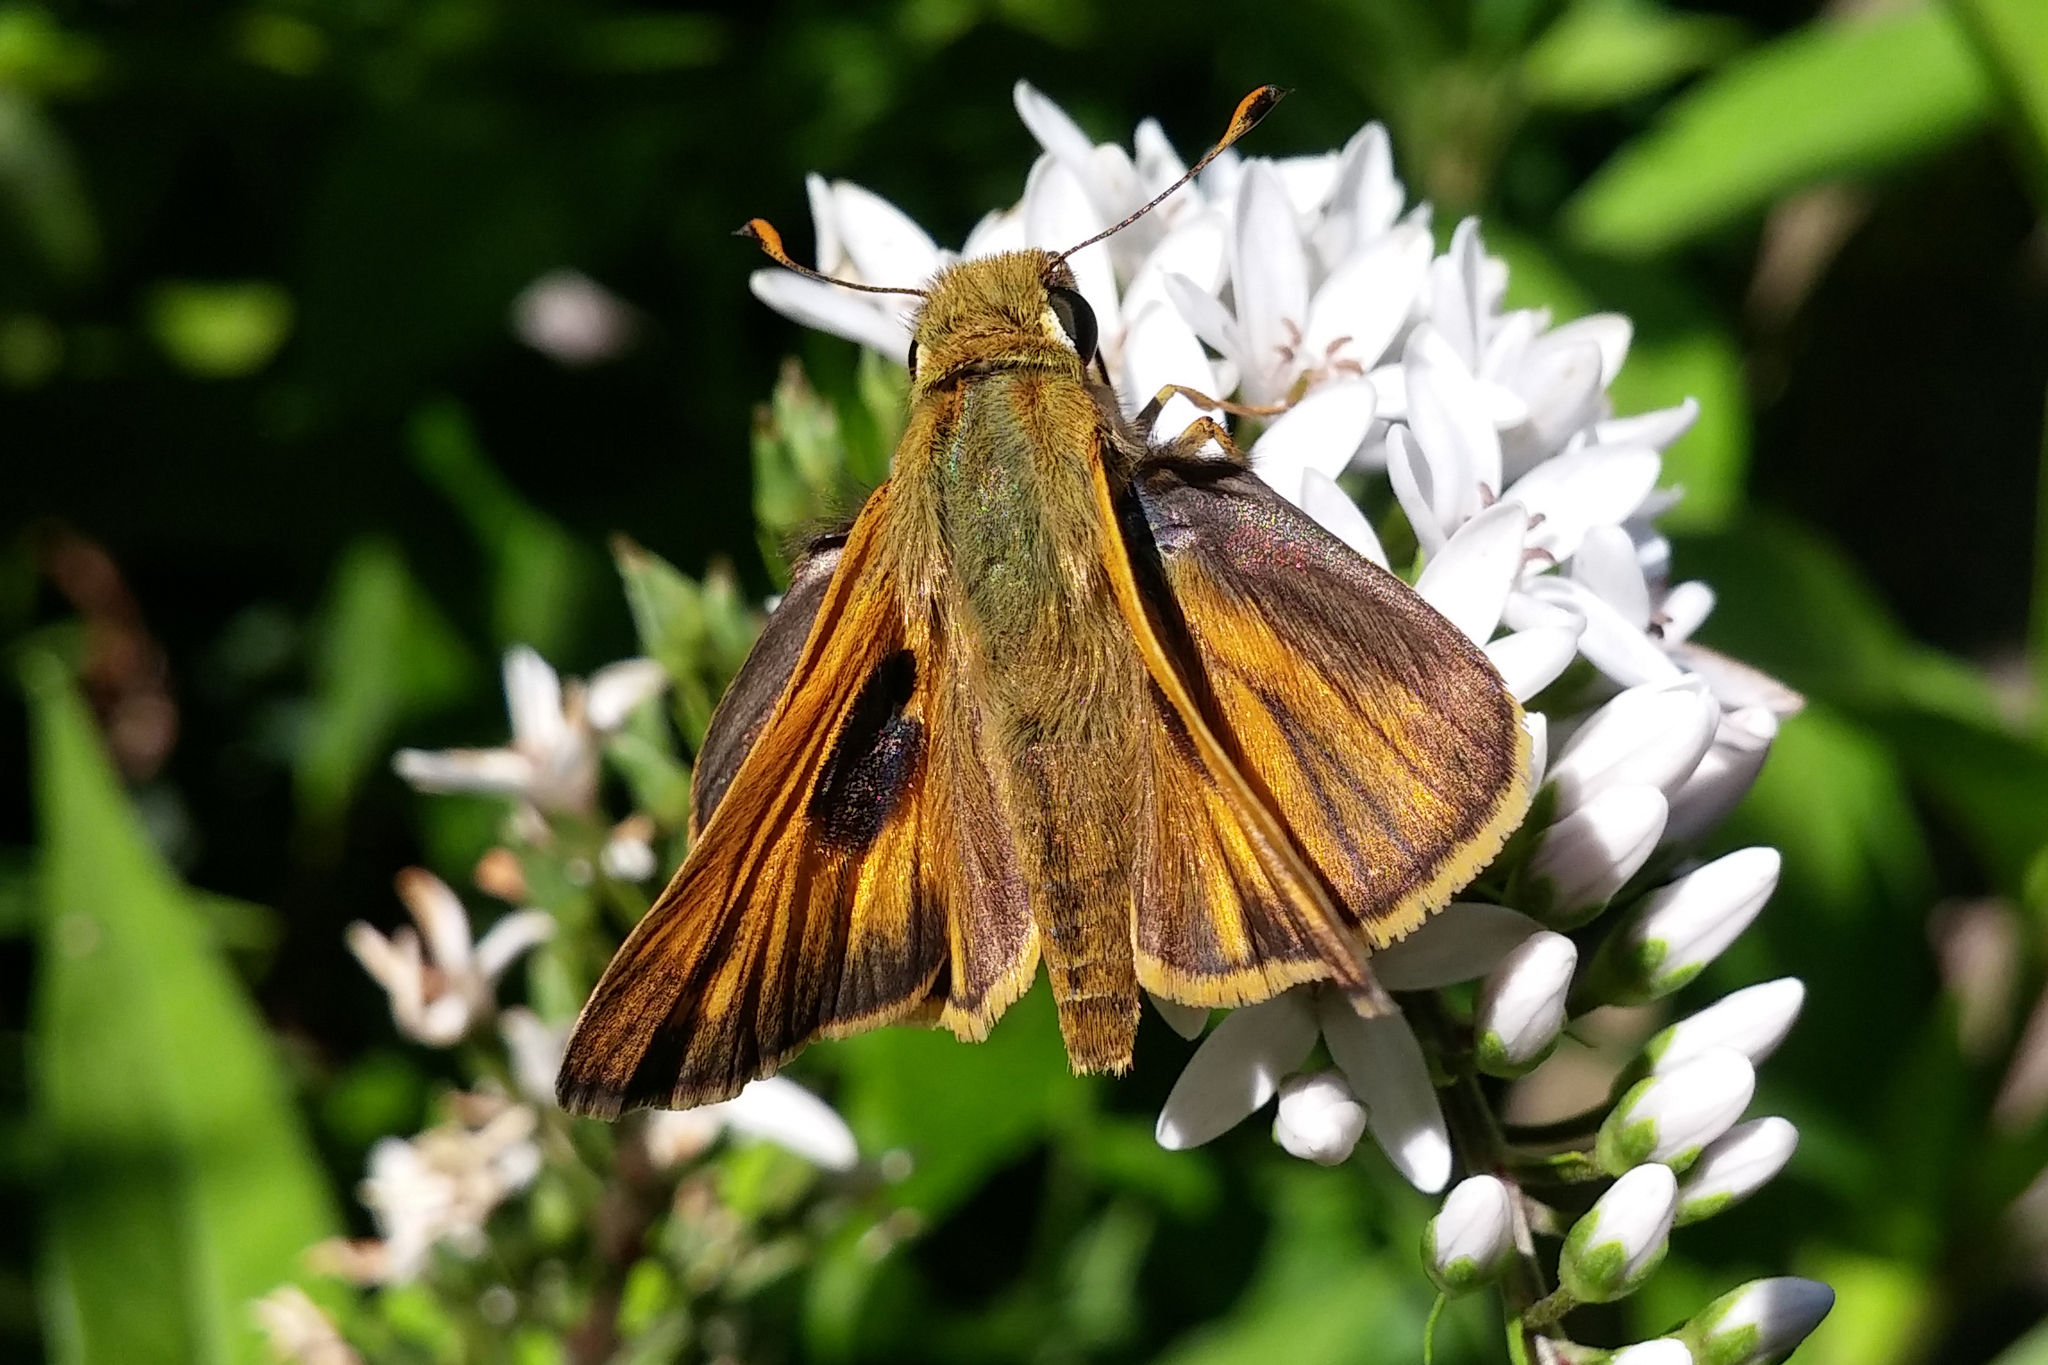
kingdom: Animalia
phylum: Arthropoda
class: Insecta
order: Lepidoptera
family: Hesperiidae
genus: Atalopedes
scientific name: Atalopedes
